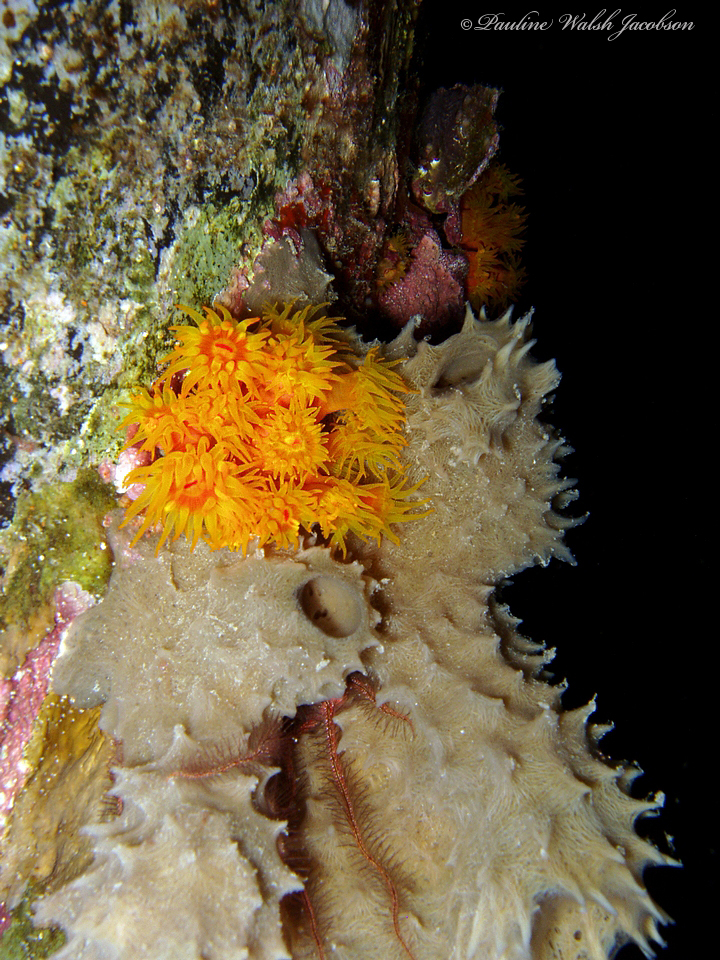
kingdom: Animalia
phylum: Cnidaria
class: Anthozoa
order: Scleractinia
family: Dendrophylliidae
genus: Tubastraea
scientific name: Tubastraea coccinea
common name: Orange cup coral
